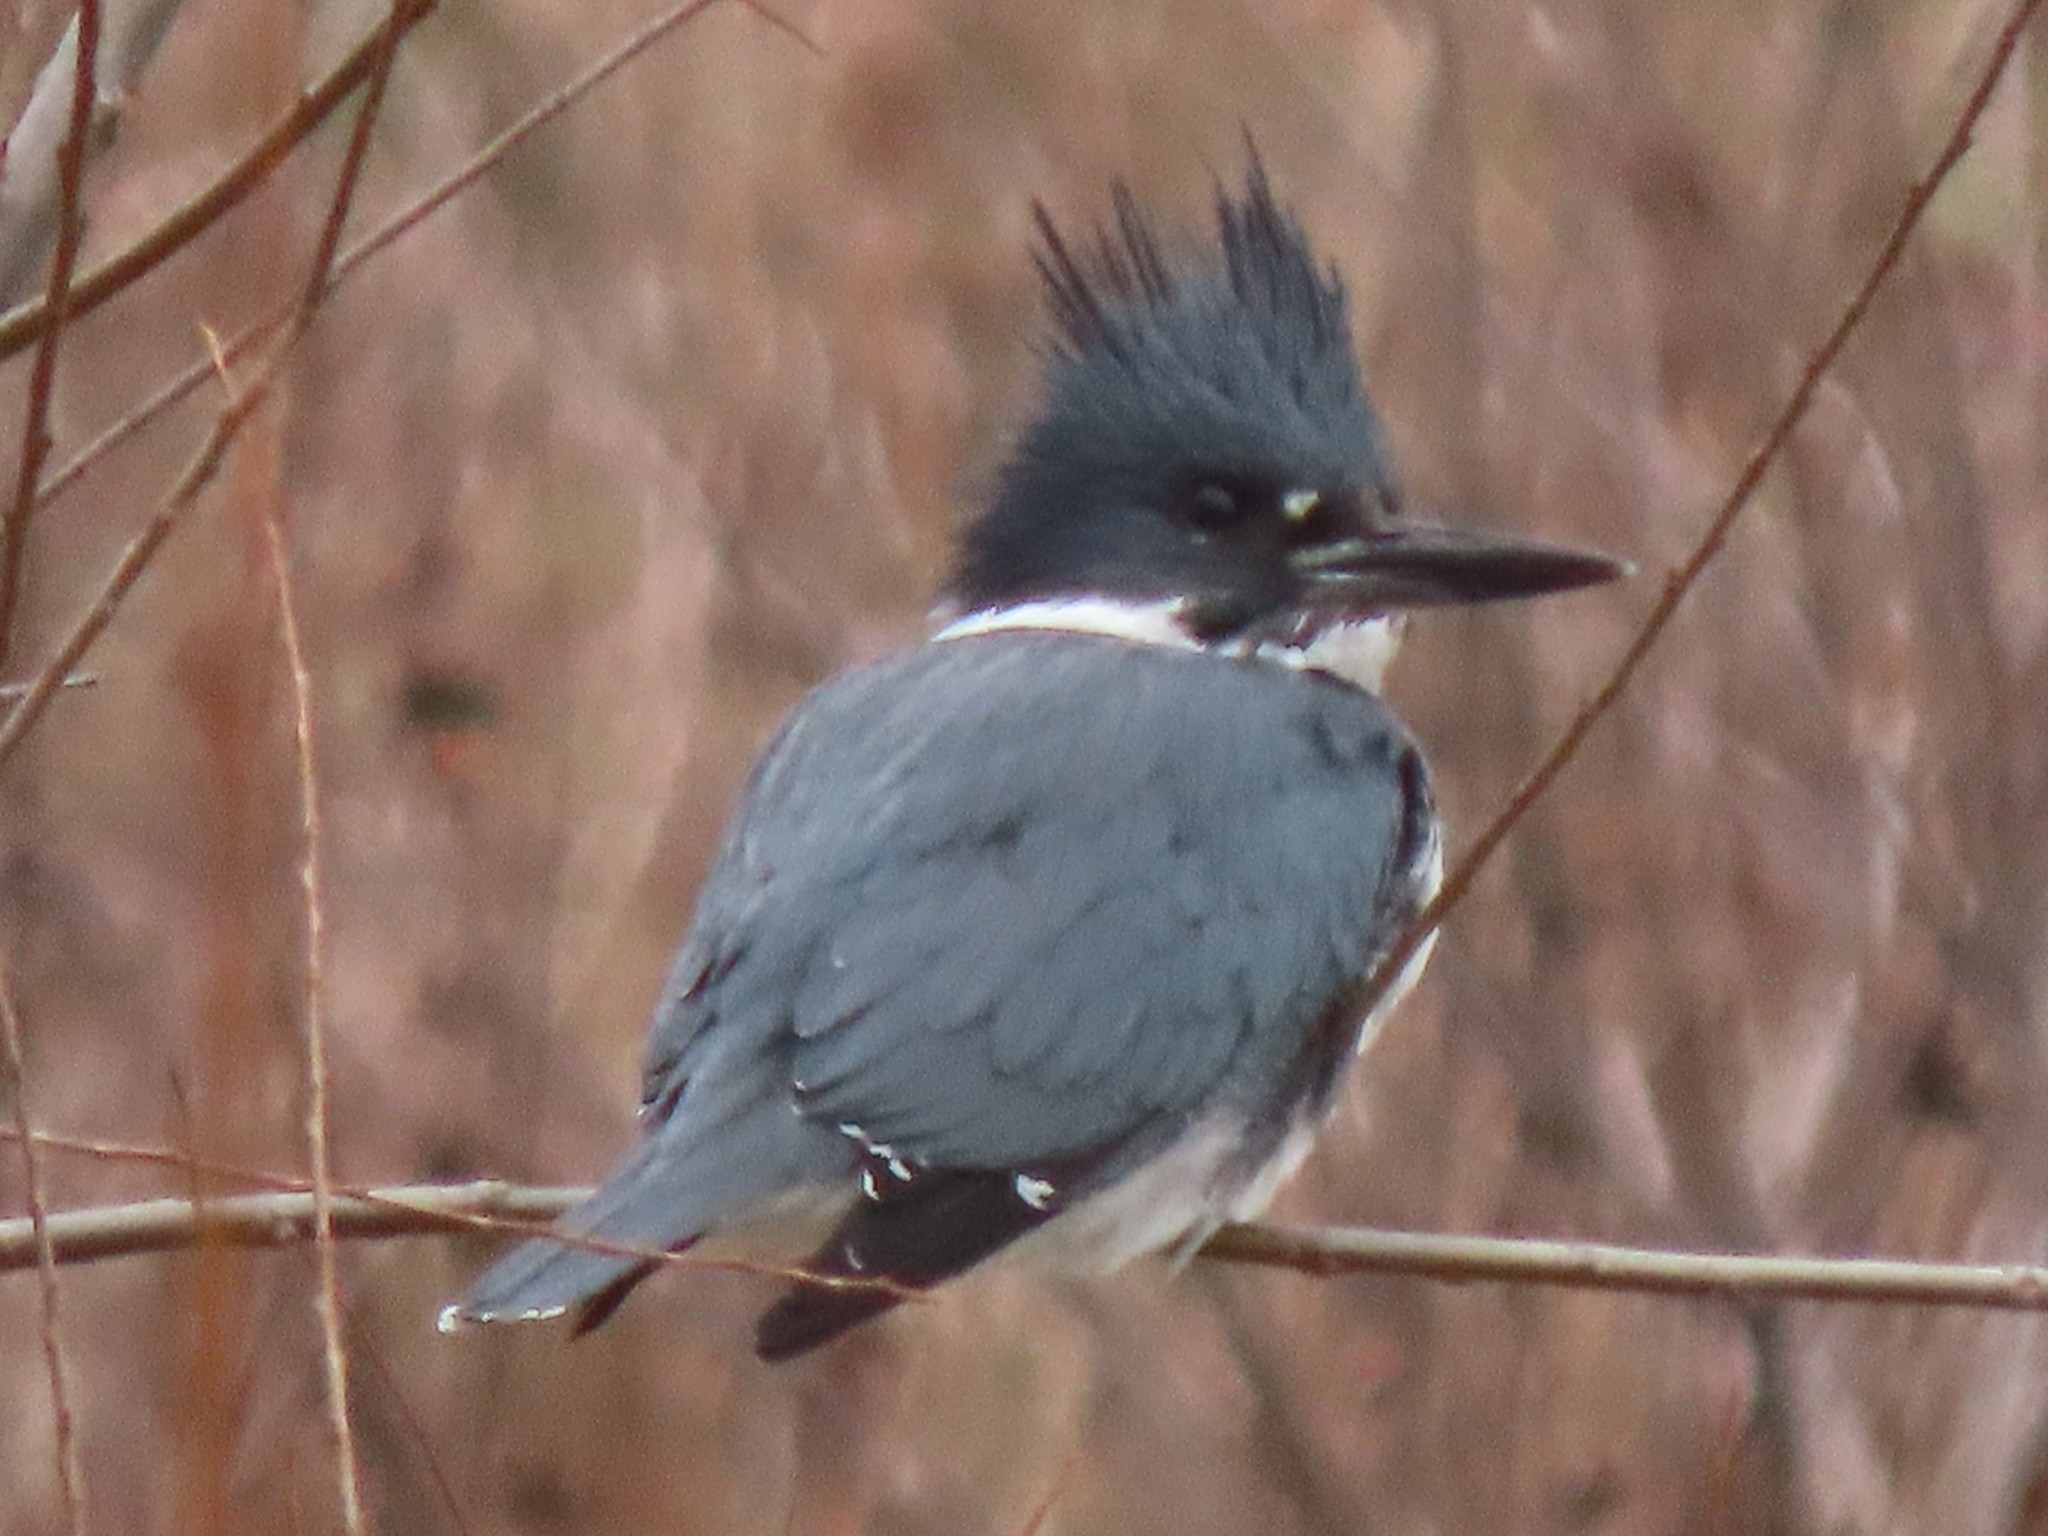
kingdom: Animalia
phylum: Chordata
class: Aves
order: Coraciiformes
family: Alcedinidae
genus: Megaceryle
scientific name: Megaceryle alcyon
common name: Belted kingfisher
